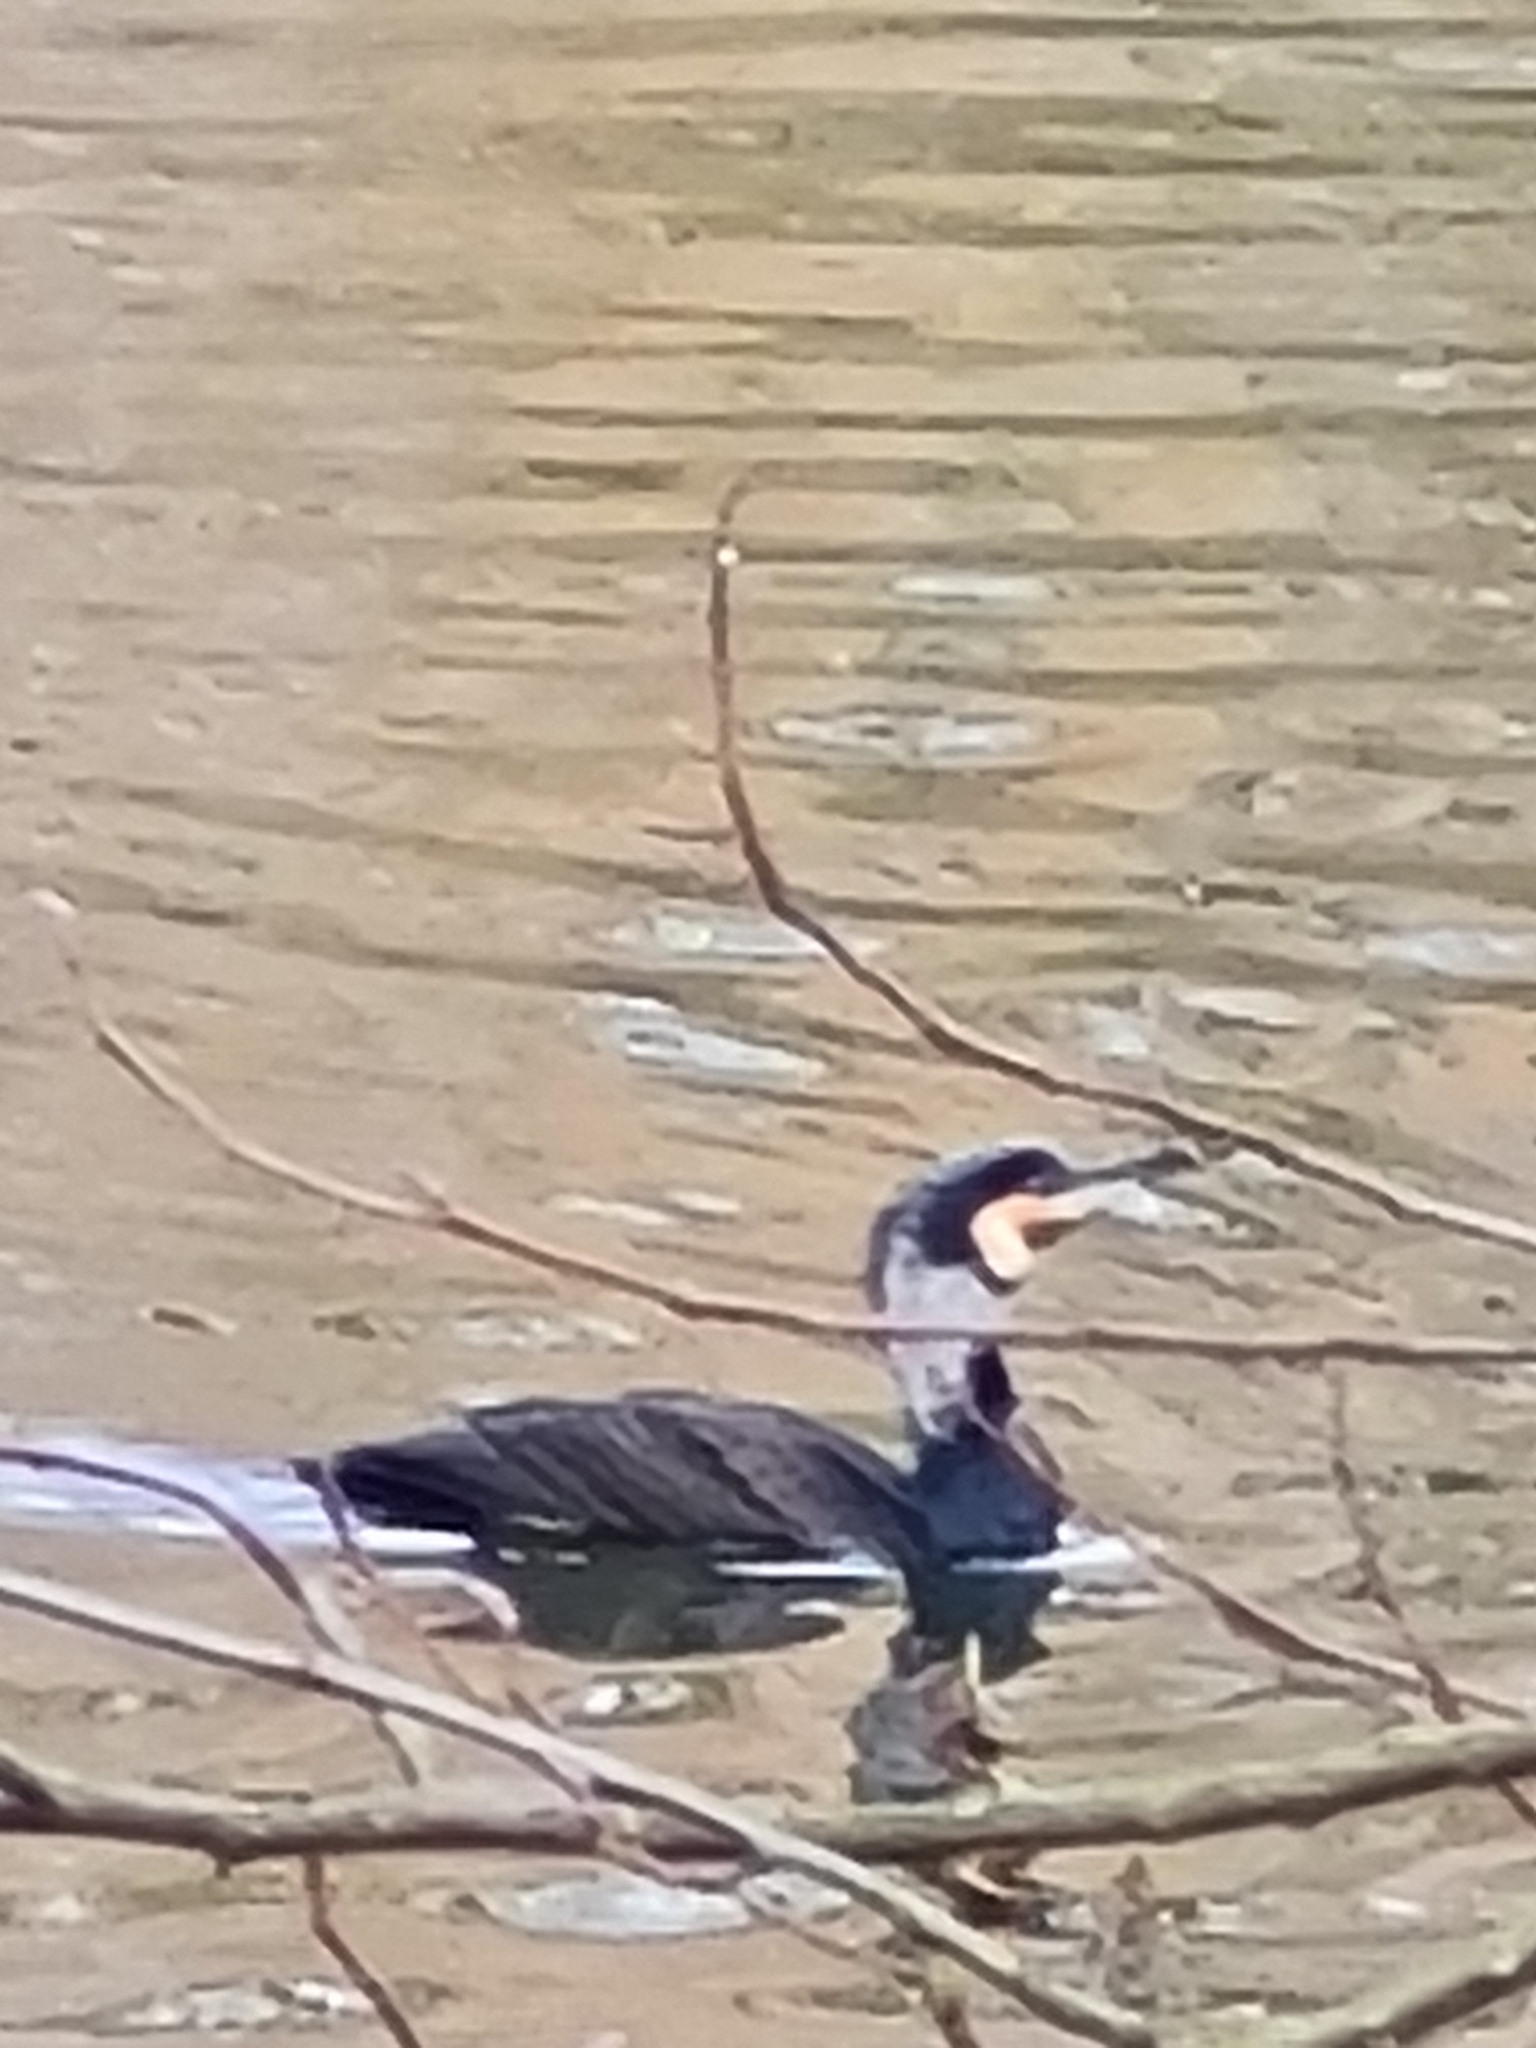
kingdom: Animalia
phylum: Chordata
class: Aves
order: Suliformes
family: Phalacrocoracidae
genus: Phalacrocorax
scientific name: Phalacrocorax carbo
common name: Great cormorant
